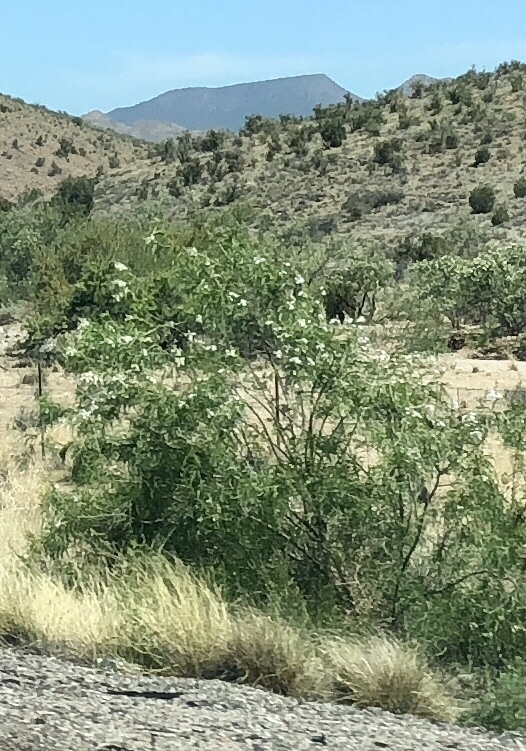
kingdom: Plantae
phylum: Tracheophyta
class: Magnoliopsida
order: Lamiales
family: Bignoniaceae
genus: Chilopsis
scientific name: Chilopsis linearis
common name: Desert-willow
